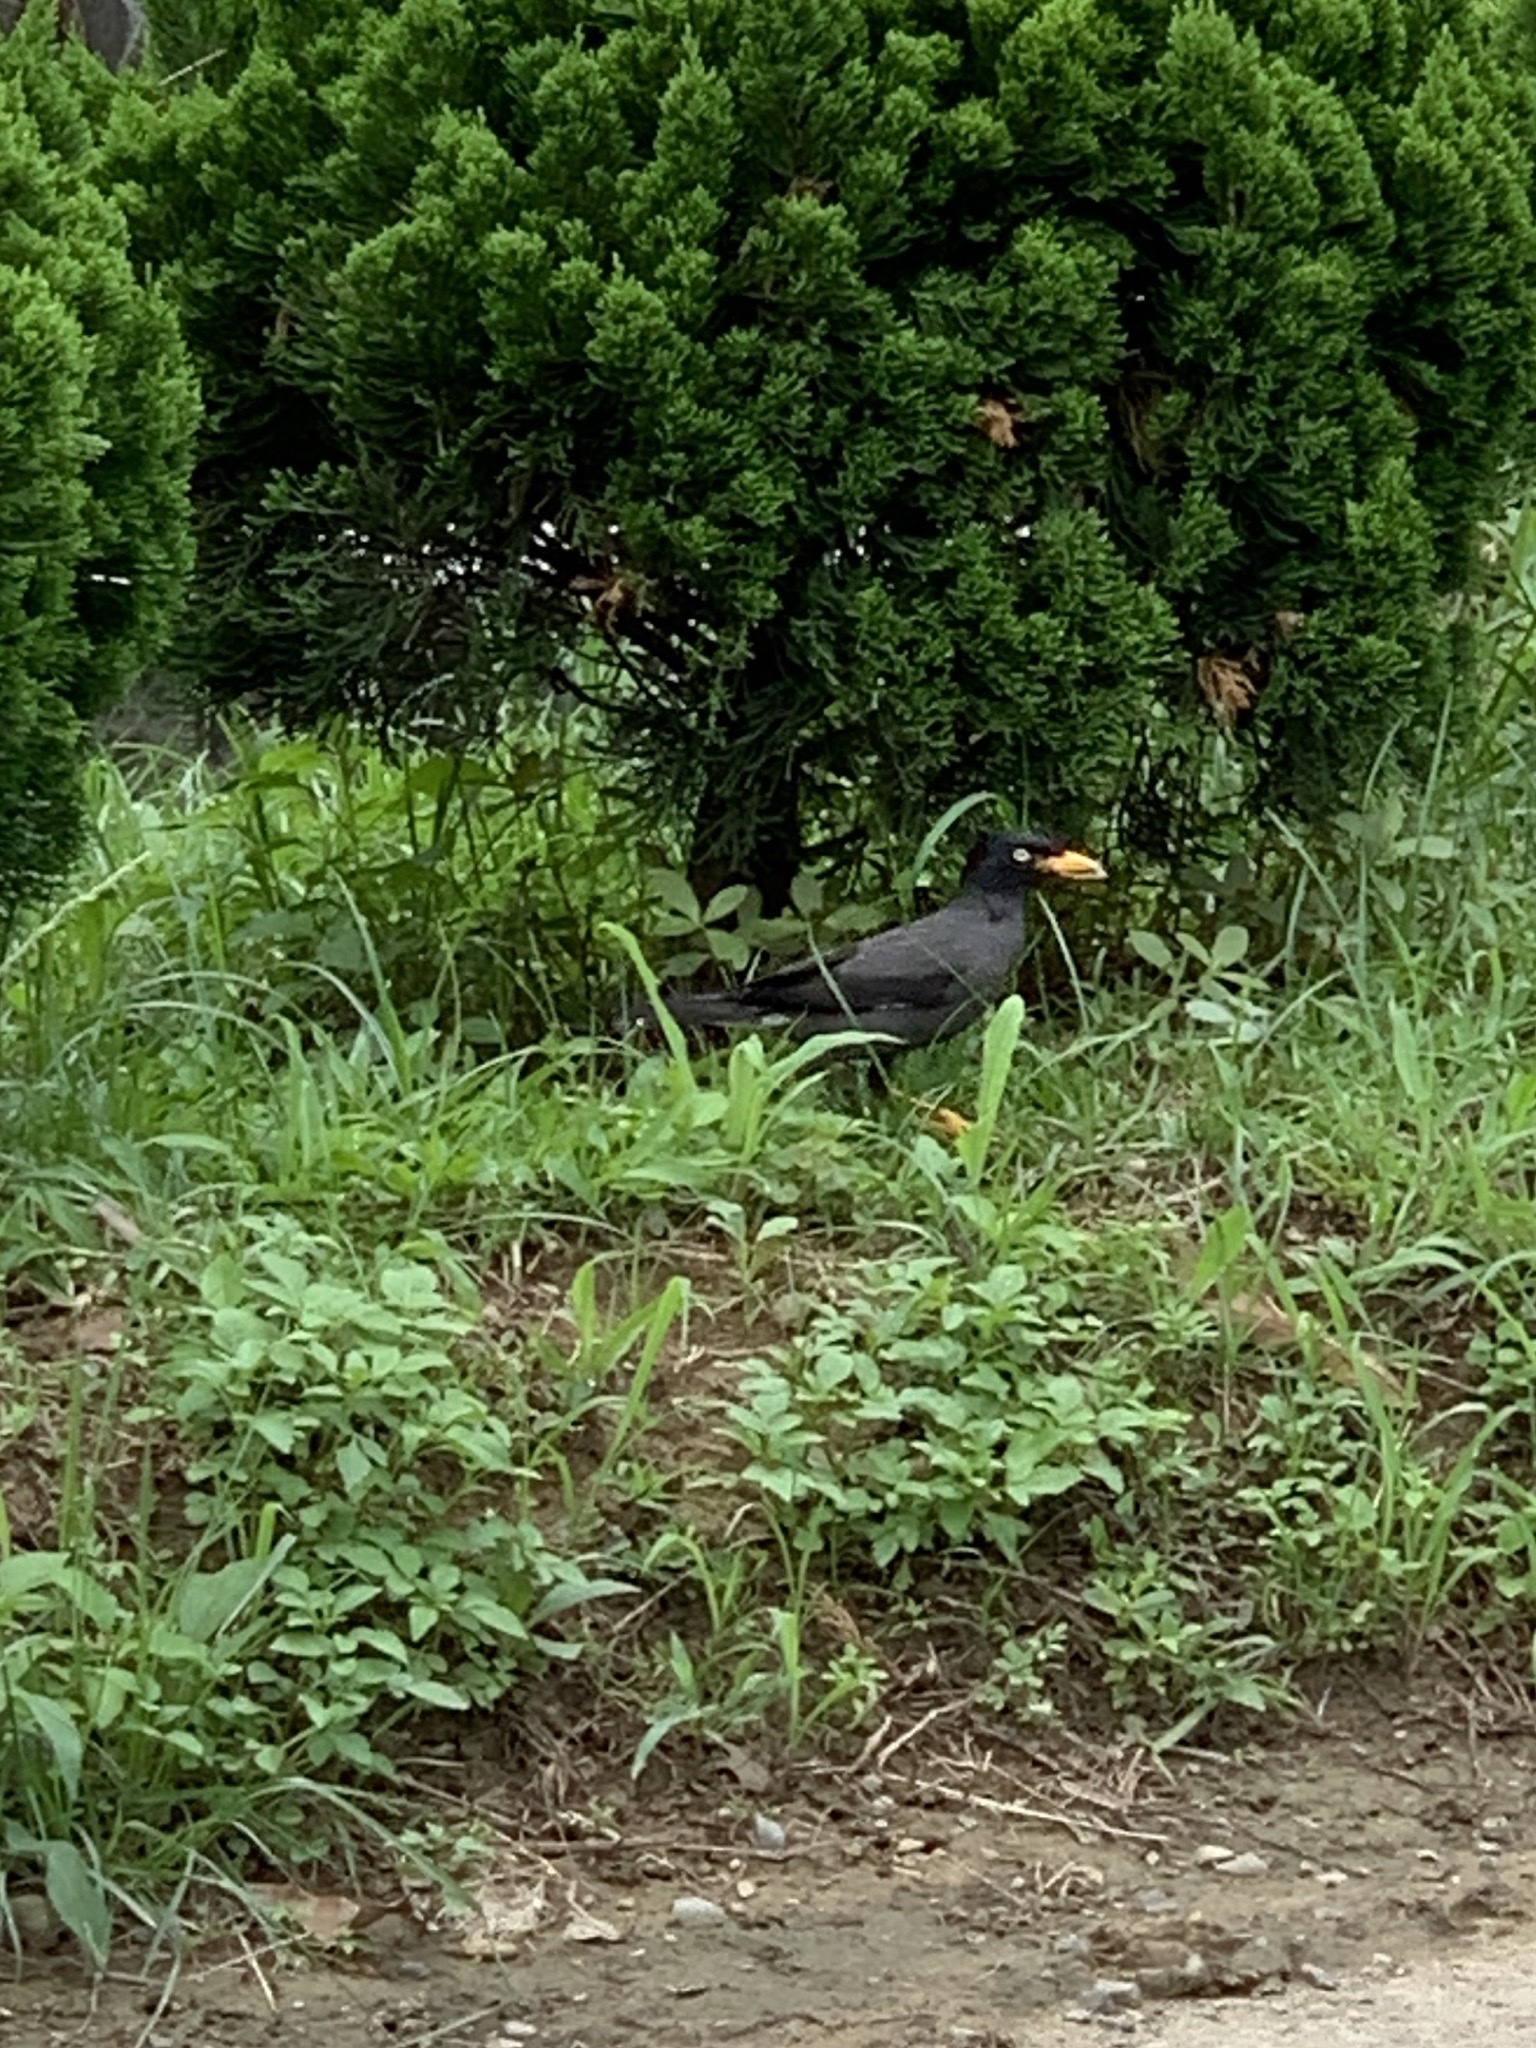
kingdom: Animalia
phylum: Chordata
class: Aves
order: Passeriformes
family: Sturnidae
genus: Acridotheres
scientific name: Acridotheres javanicus
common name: Javan myna
